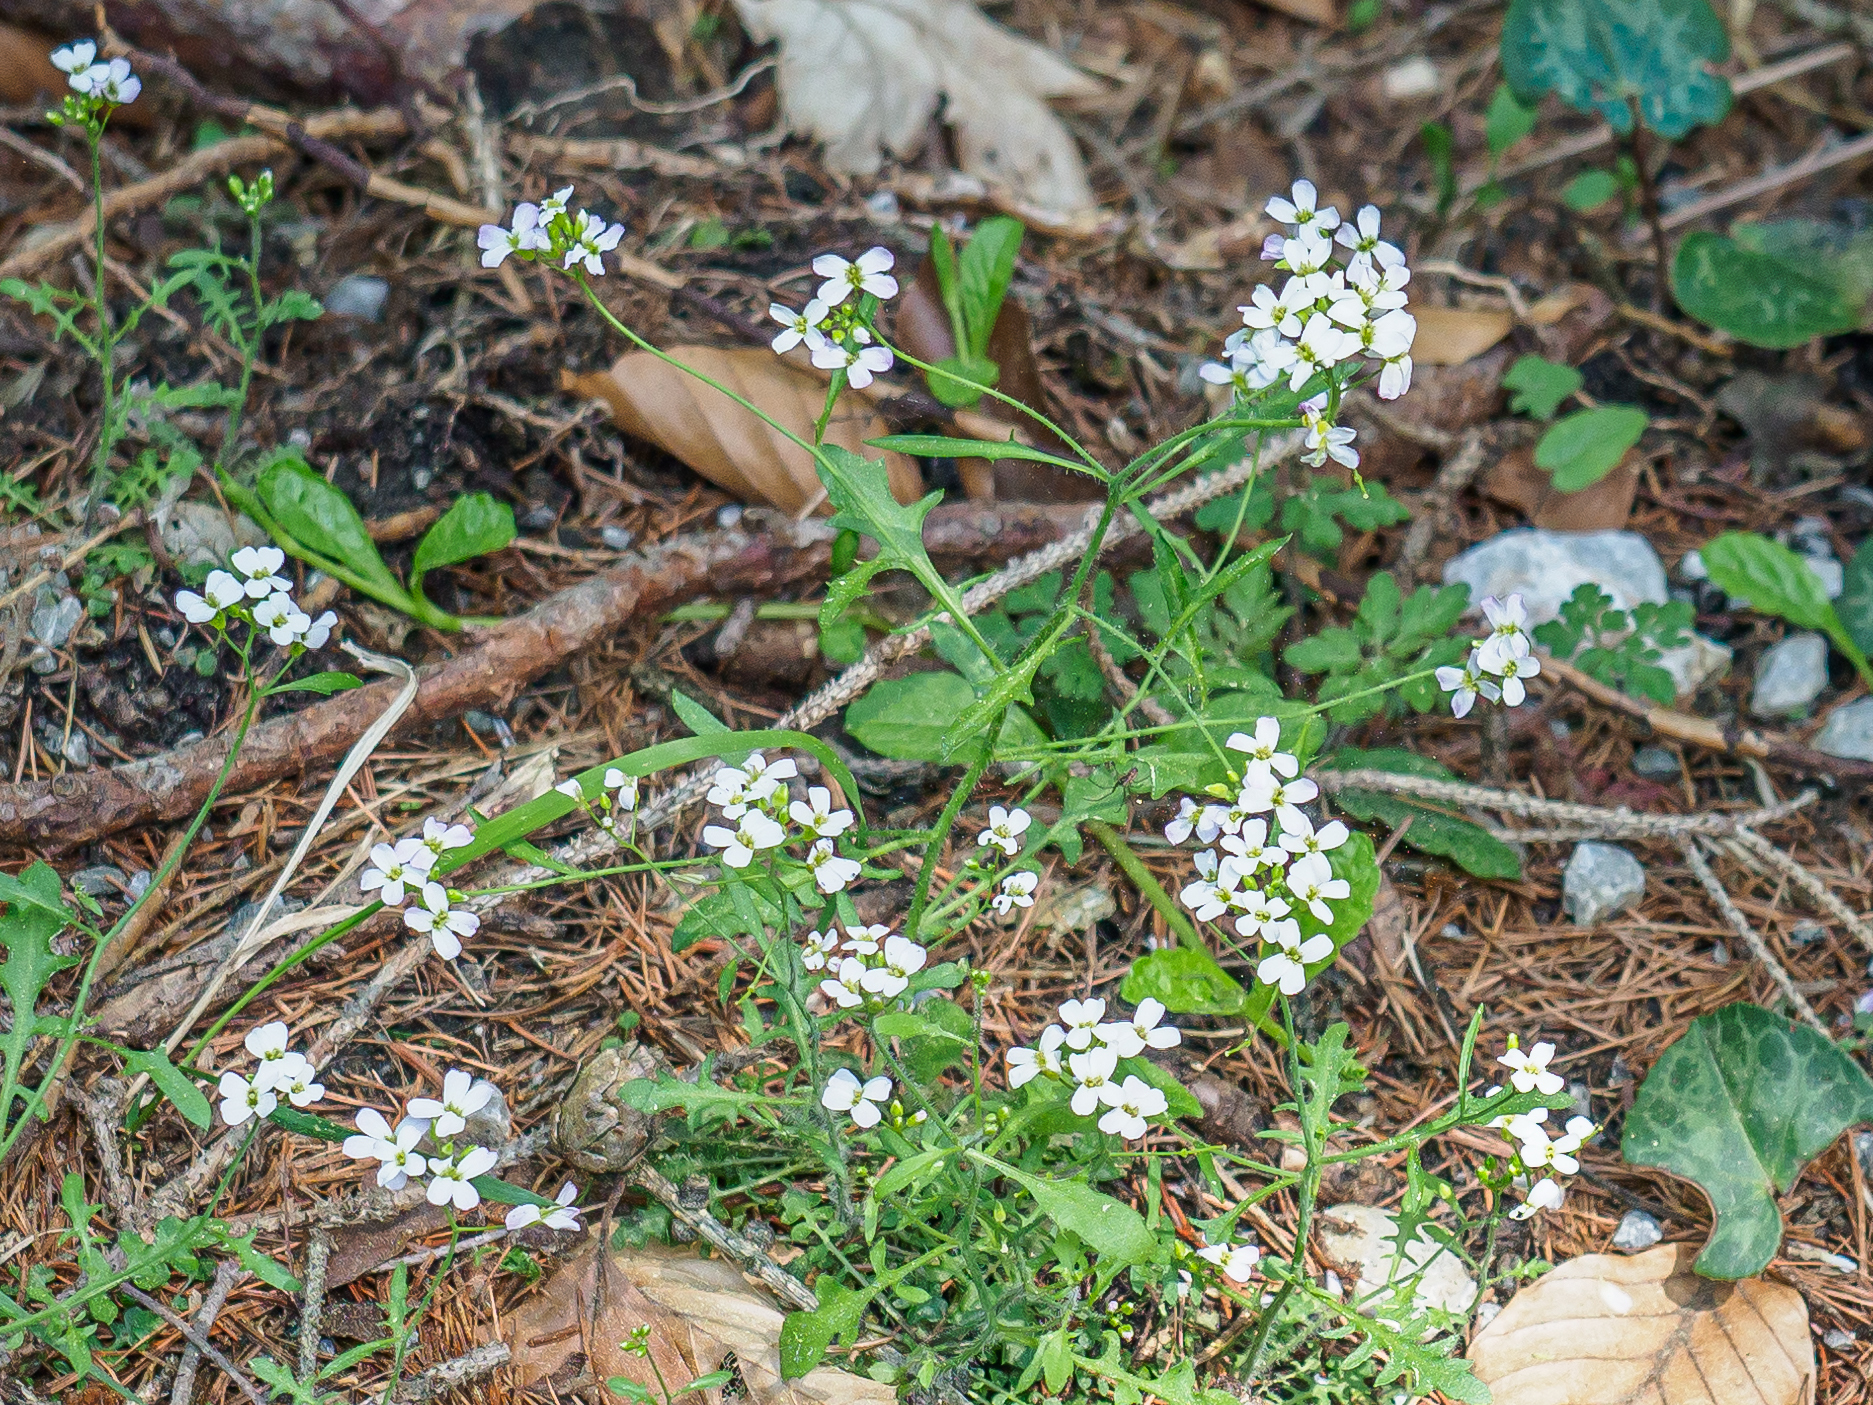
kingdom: Plantae
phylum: Tracheophyta
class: Magnoliopsida
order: Brassicales
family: Brassicaceae
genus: Arabidopsis
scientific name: Arabidopsis arenosa
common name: Sand rock-cress
